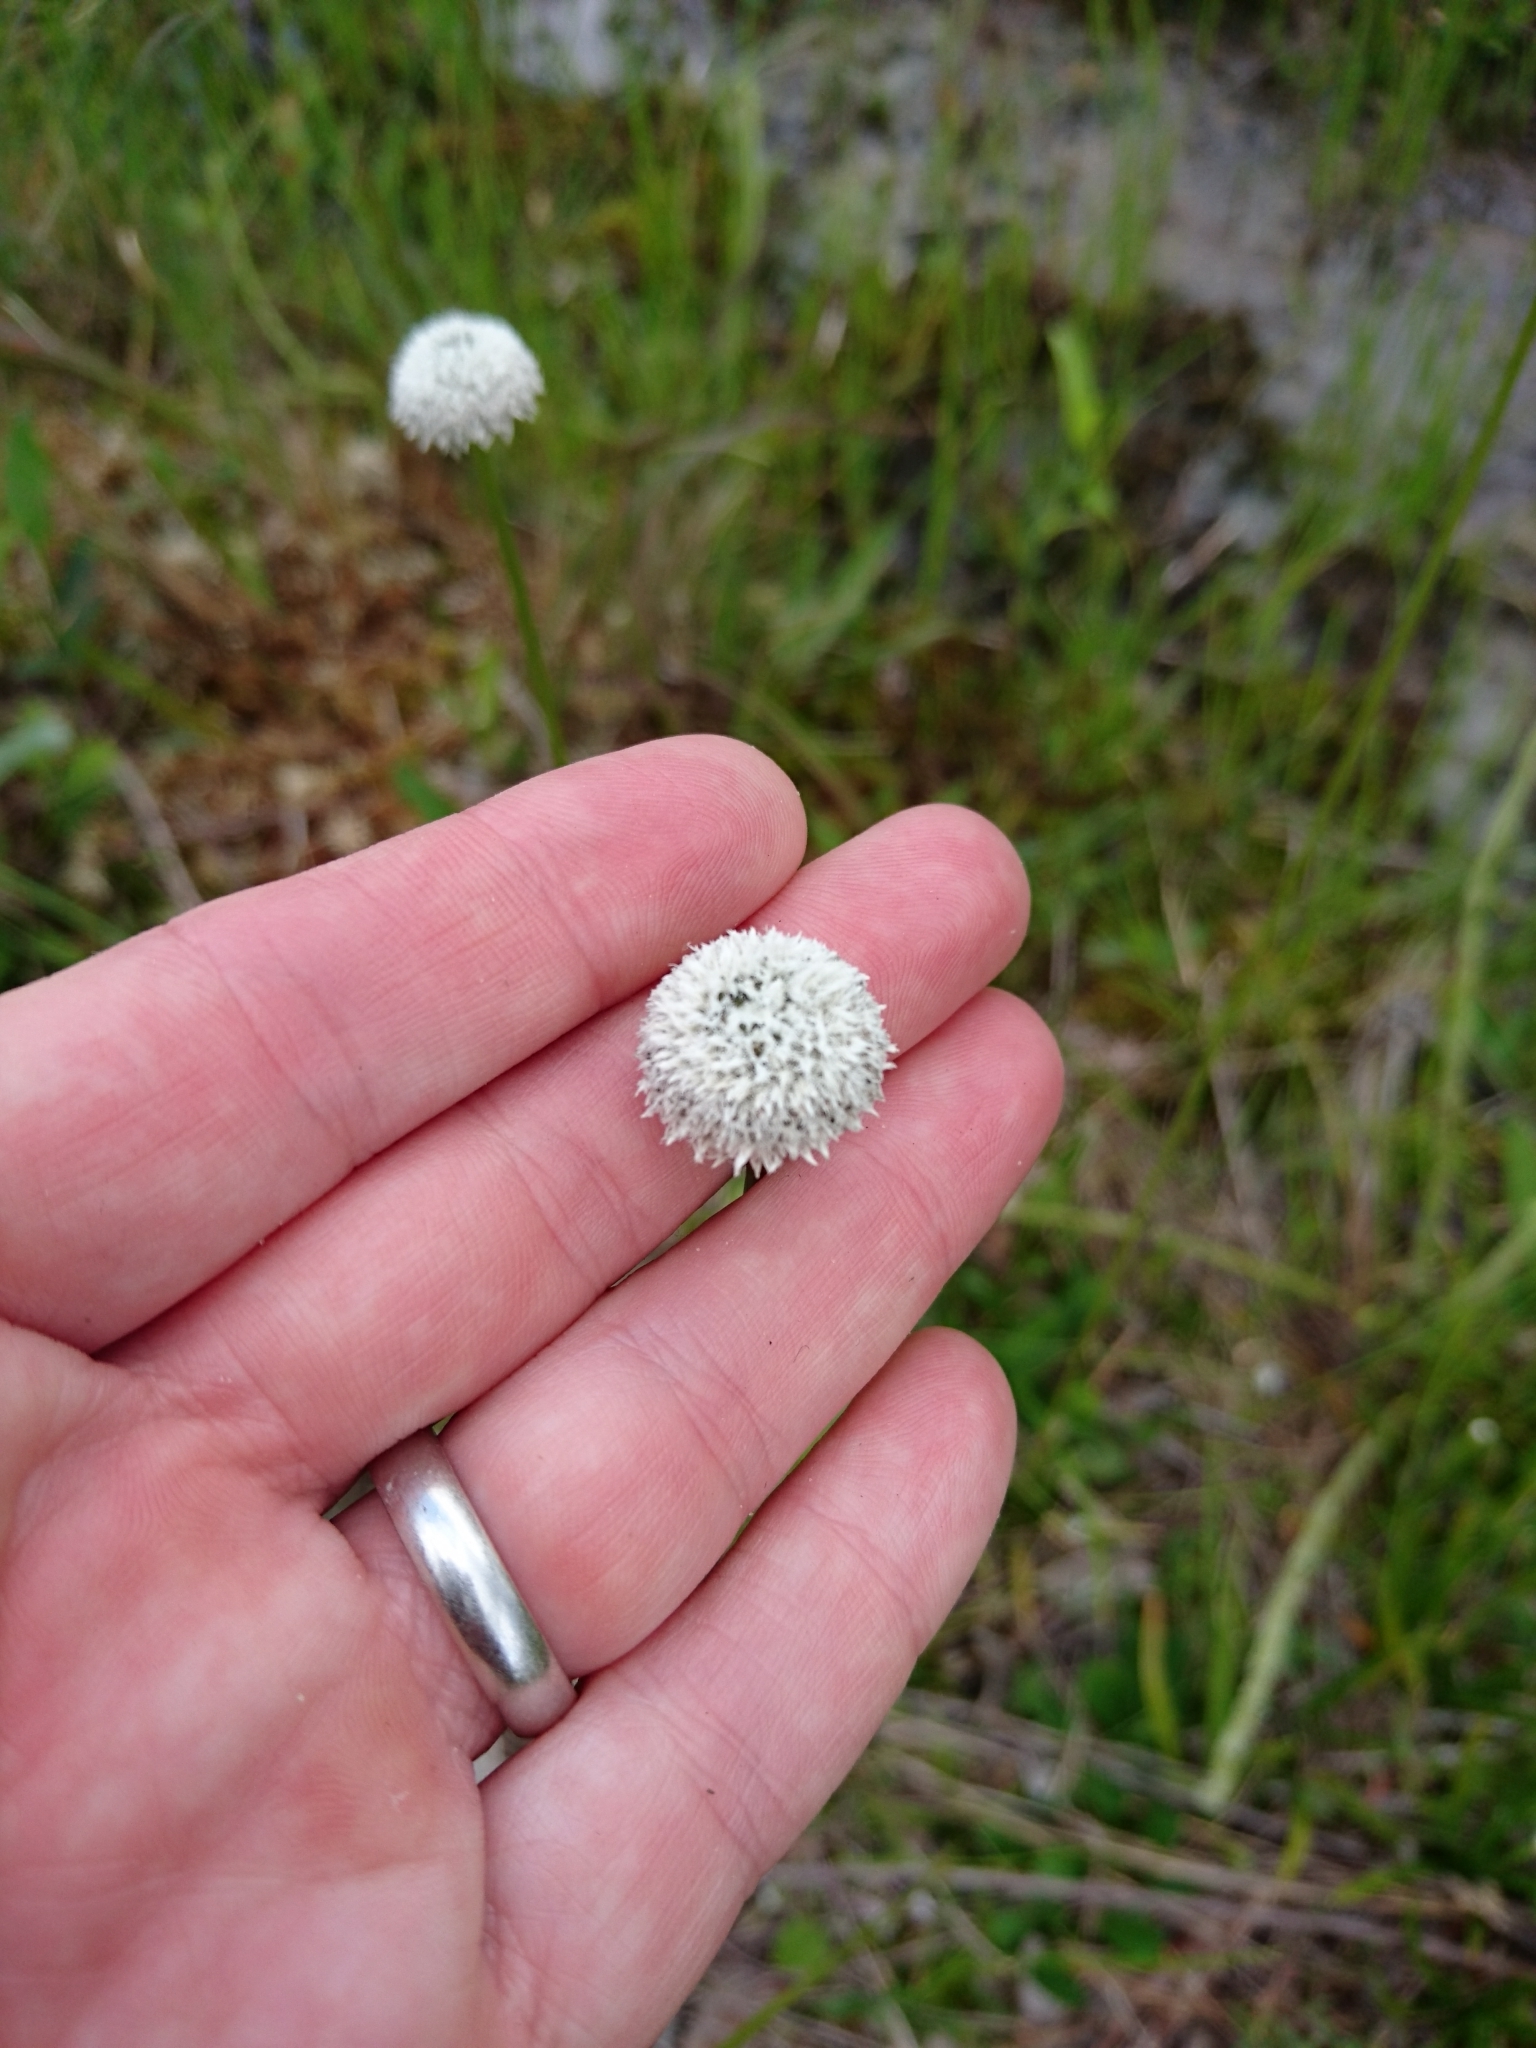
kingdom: Plantae
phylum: Tracheophyta
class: Liliopsida
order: Poales
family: Eriocaulaceae
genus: Eriocaulon
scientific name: Eriocaulon decangulare
